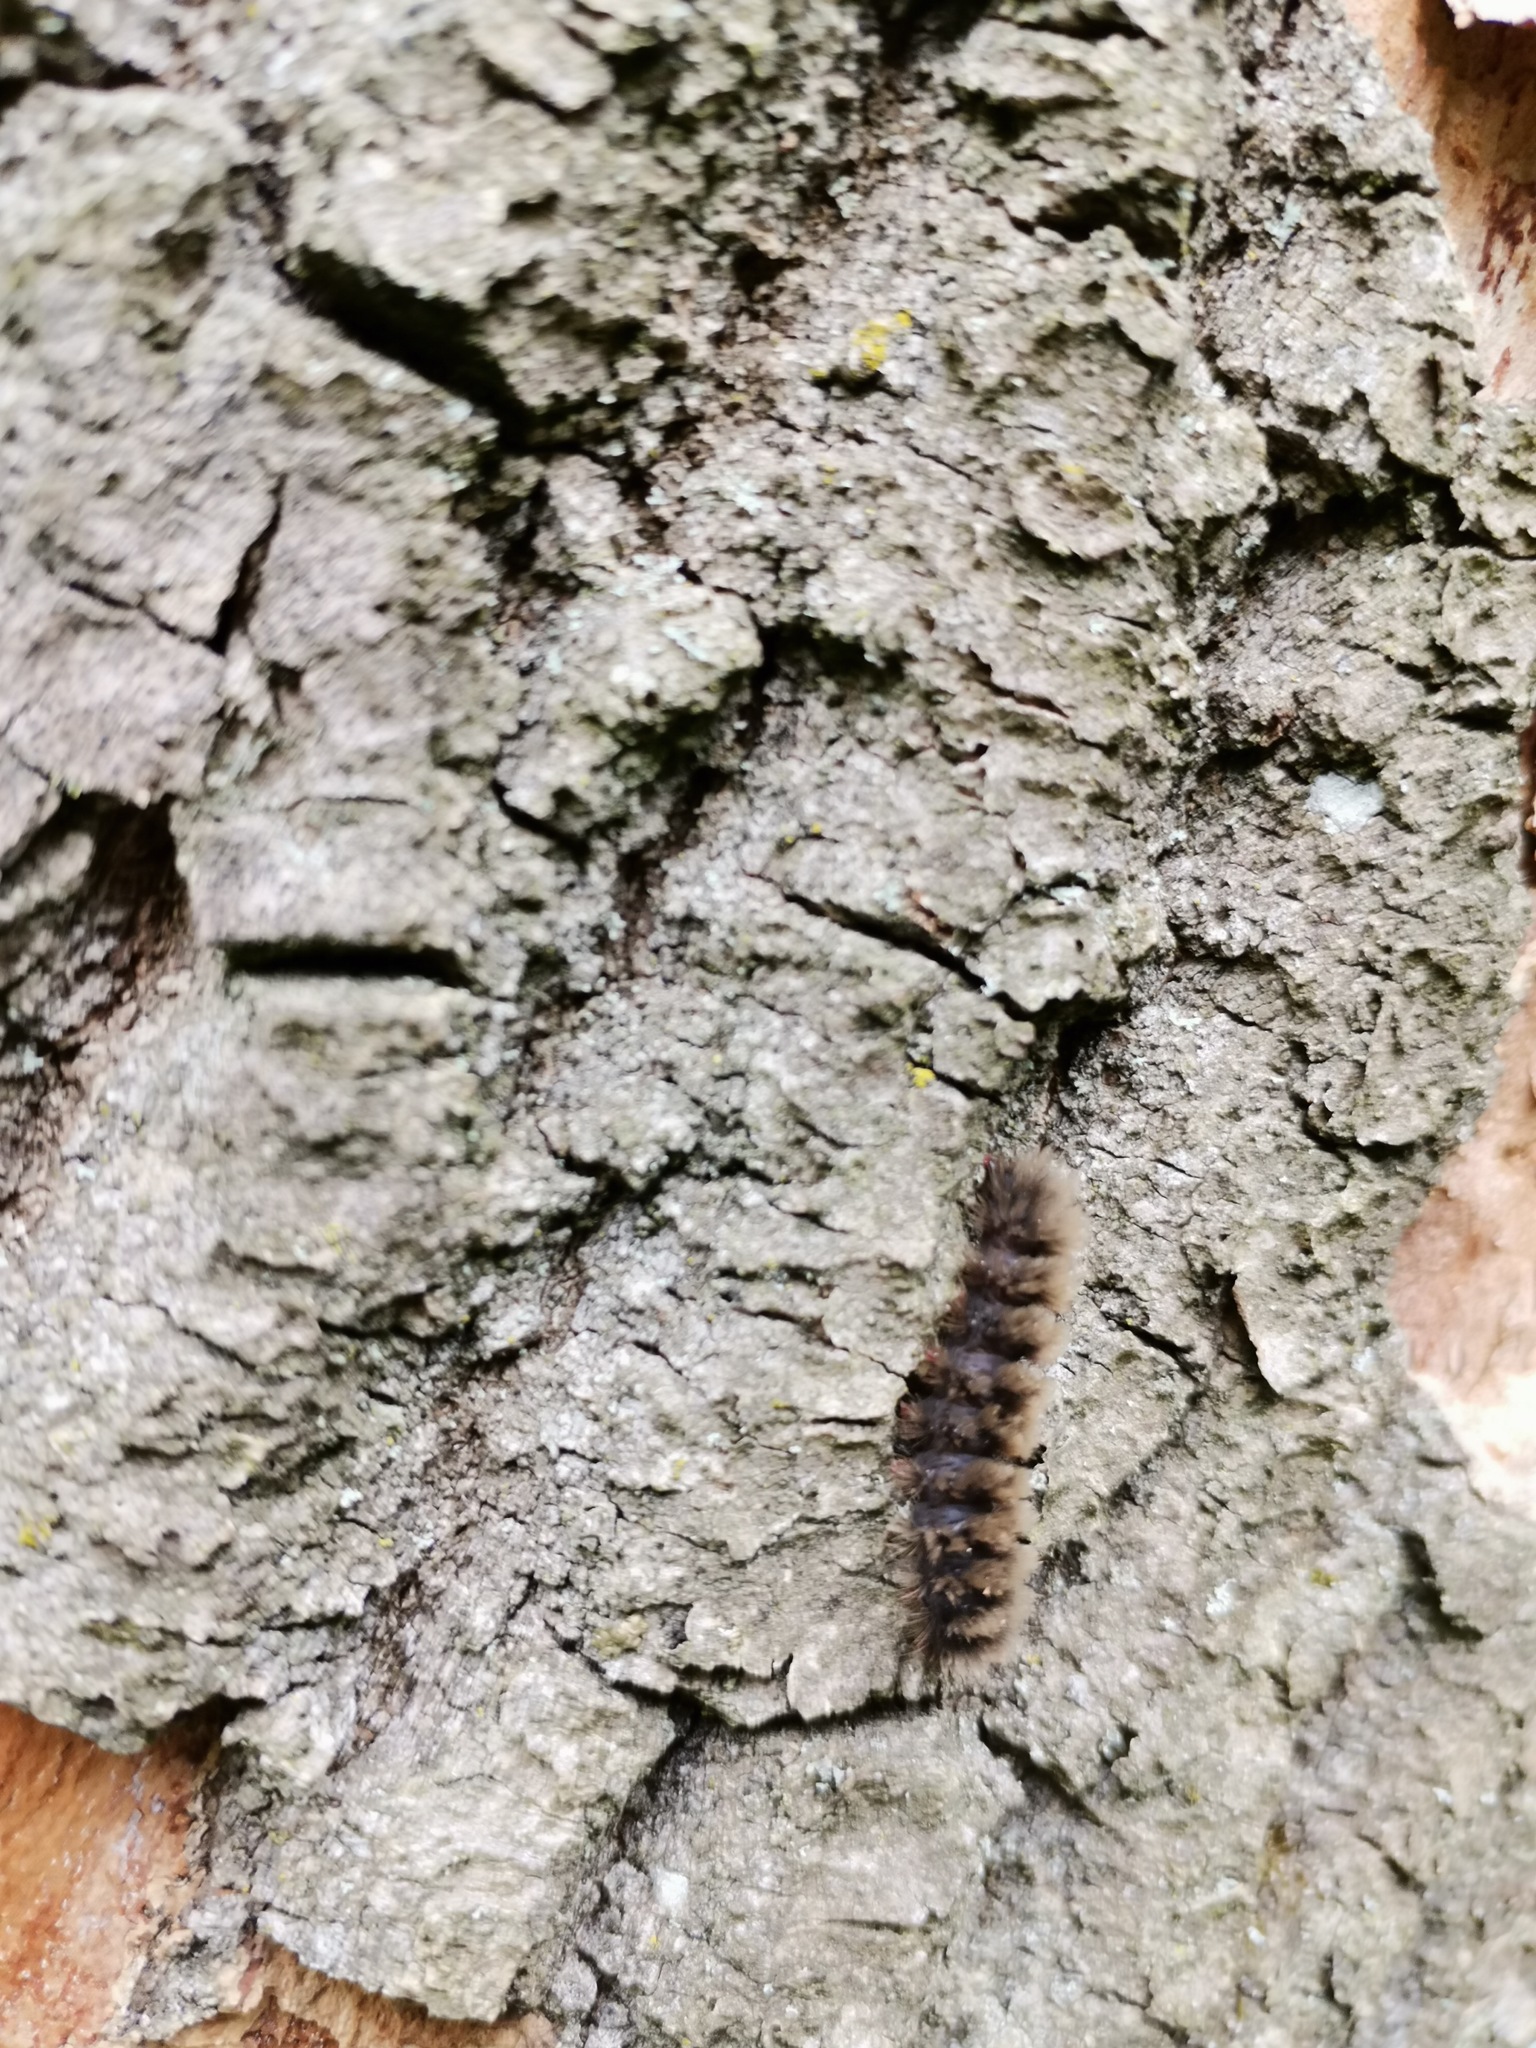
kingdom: Animalia
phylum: Arthropoda
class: Insecta
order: Lepidoptera
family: Erebidae
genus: Amata
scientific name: Amata phegea
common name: Nine-spotted
